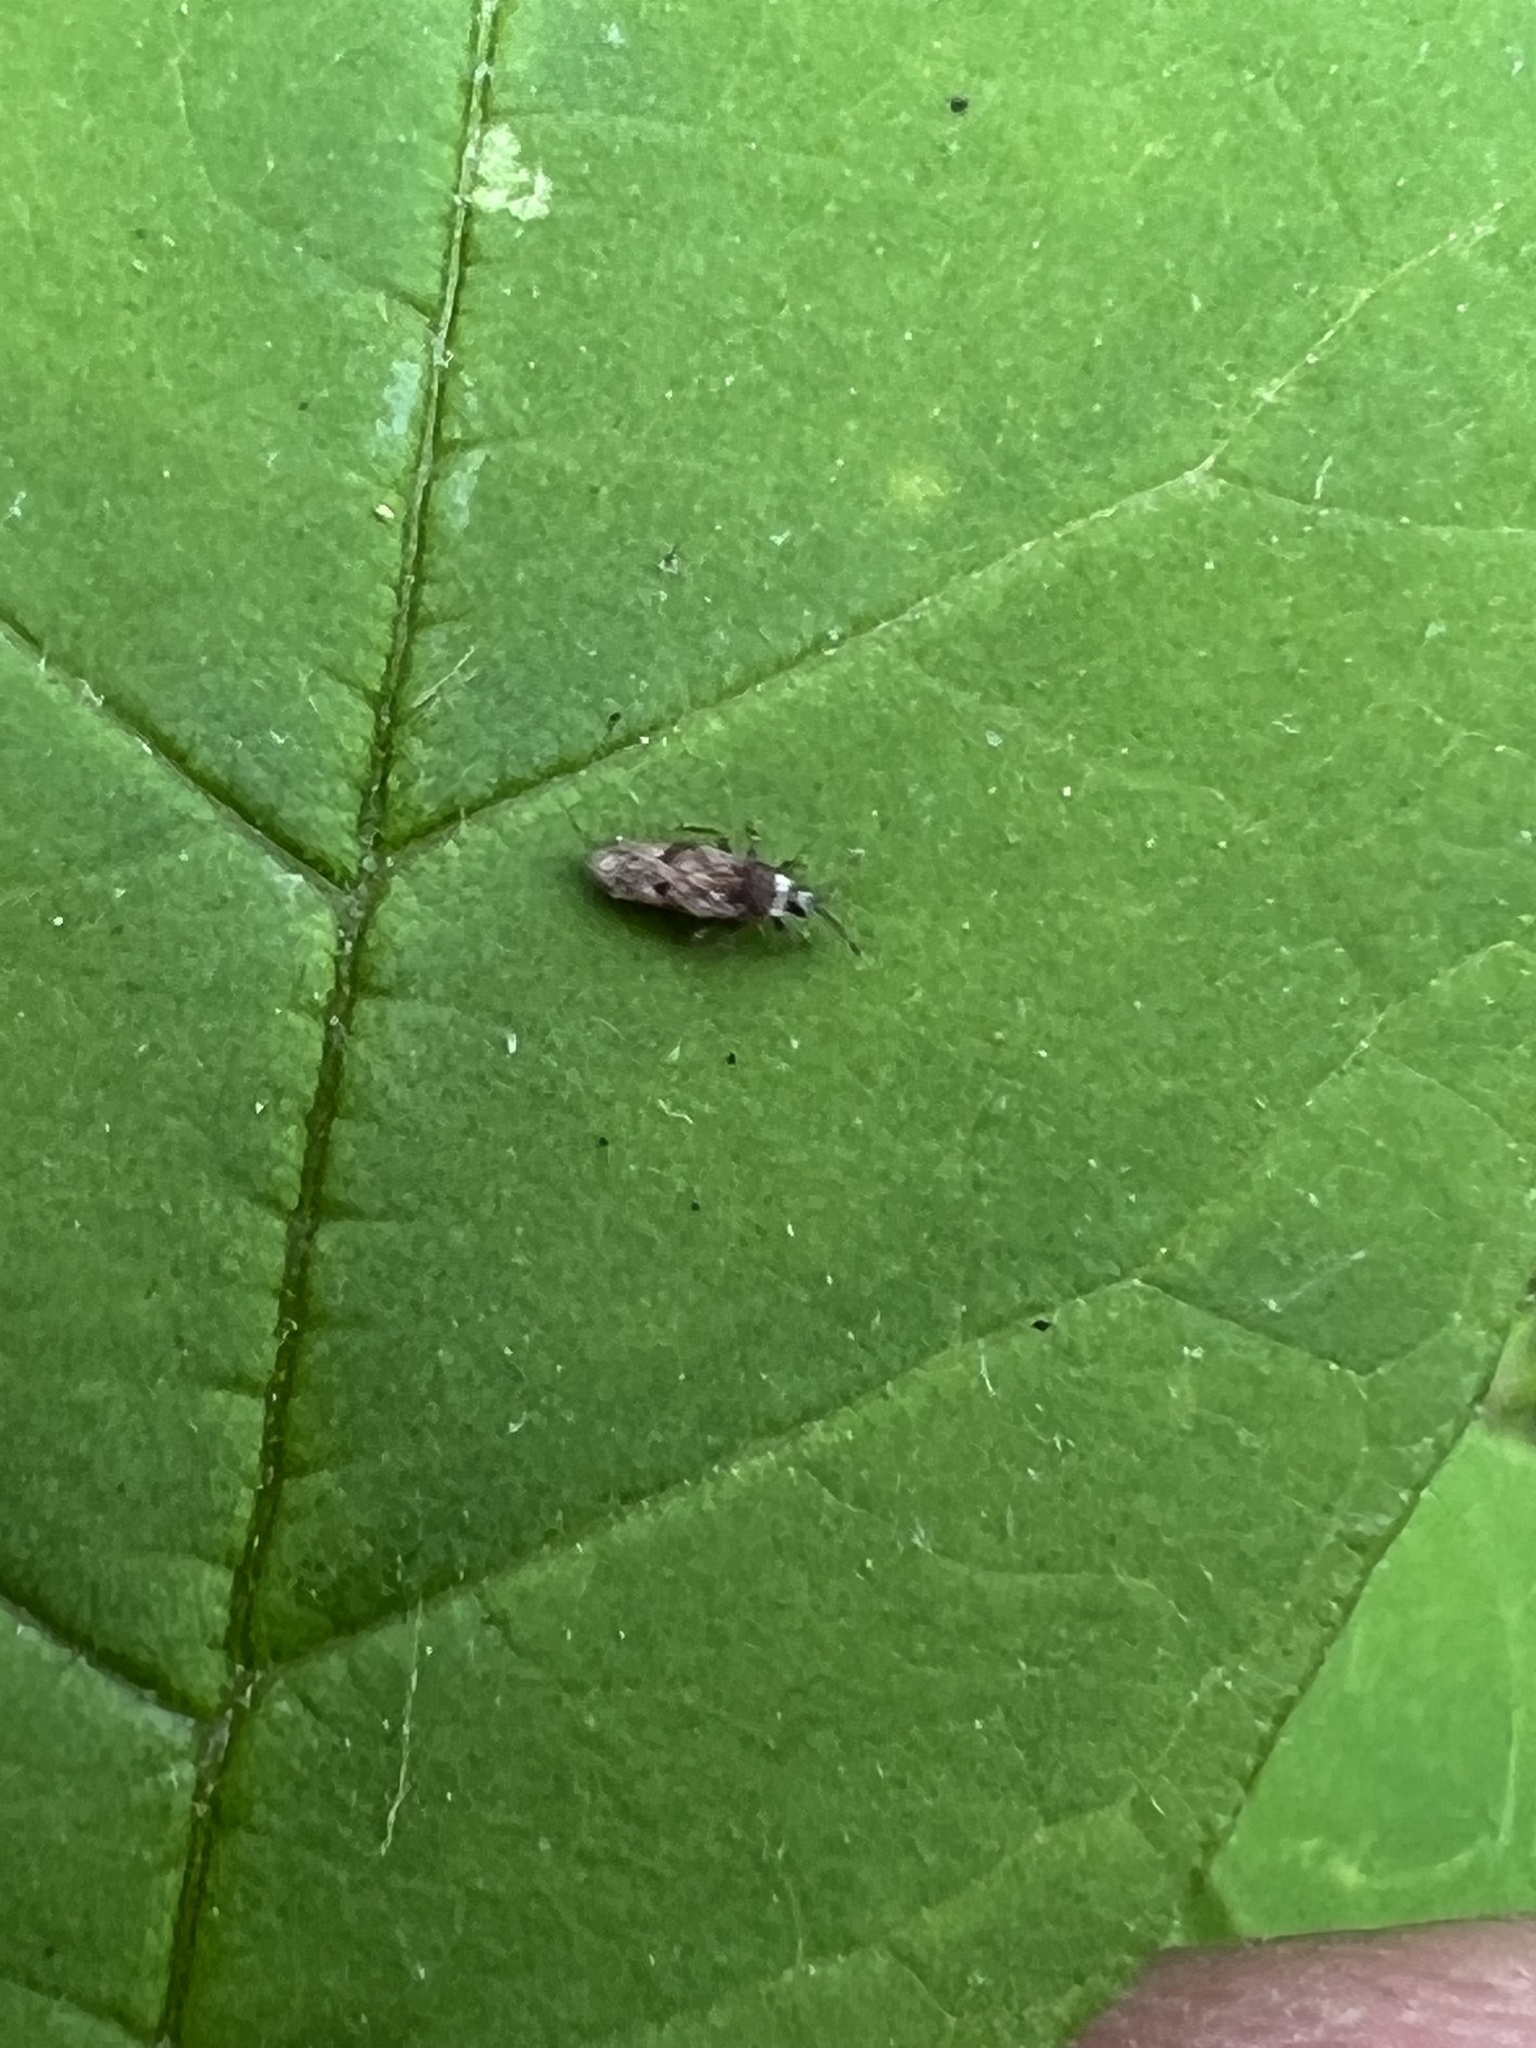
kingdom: Animalia
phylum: Arthropoda
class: Insecta
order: Hemiptera
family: Tingidae
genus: Leptoypha
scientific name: Leptoypha mutica
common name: Fringetree lace bug
